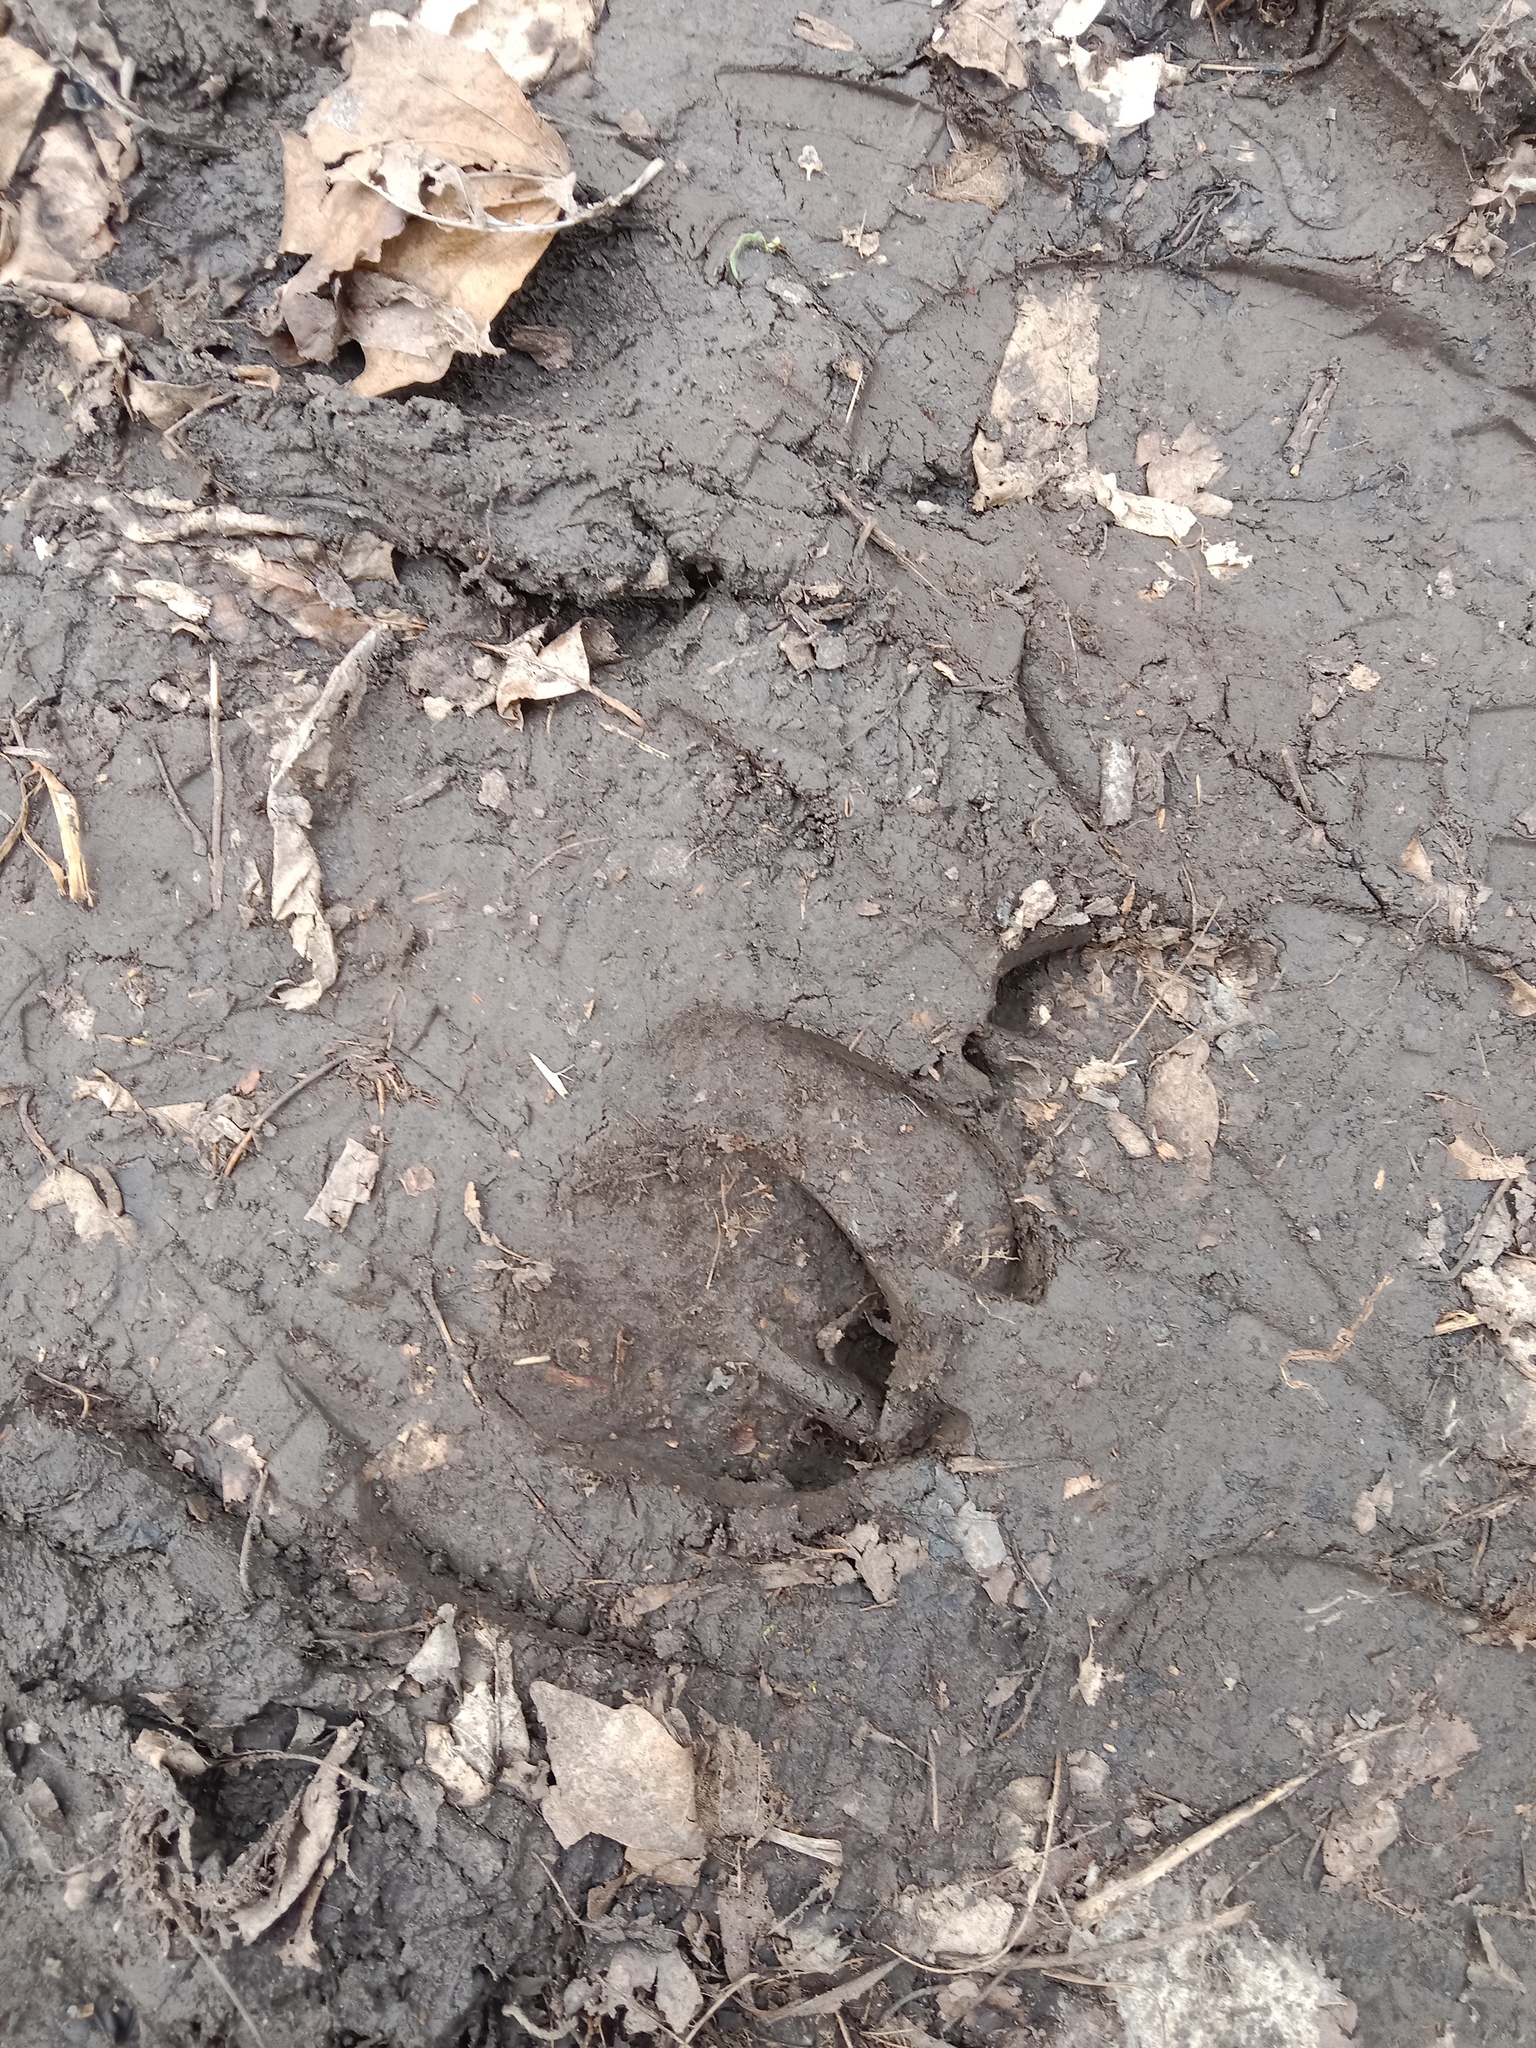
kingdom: Animalia
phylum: Chordata
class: Mammalia
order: Artiodactyla
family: Cervidae
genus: Cervus
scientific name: Cervus elaphus
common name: Red deer
